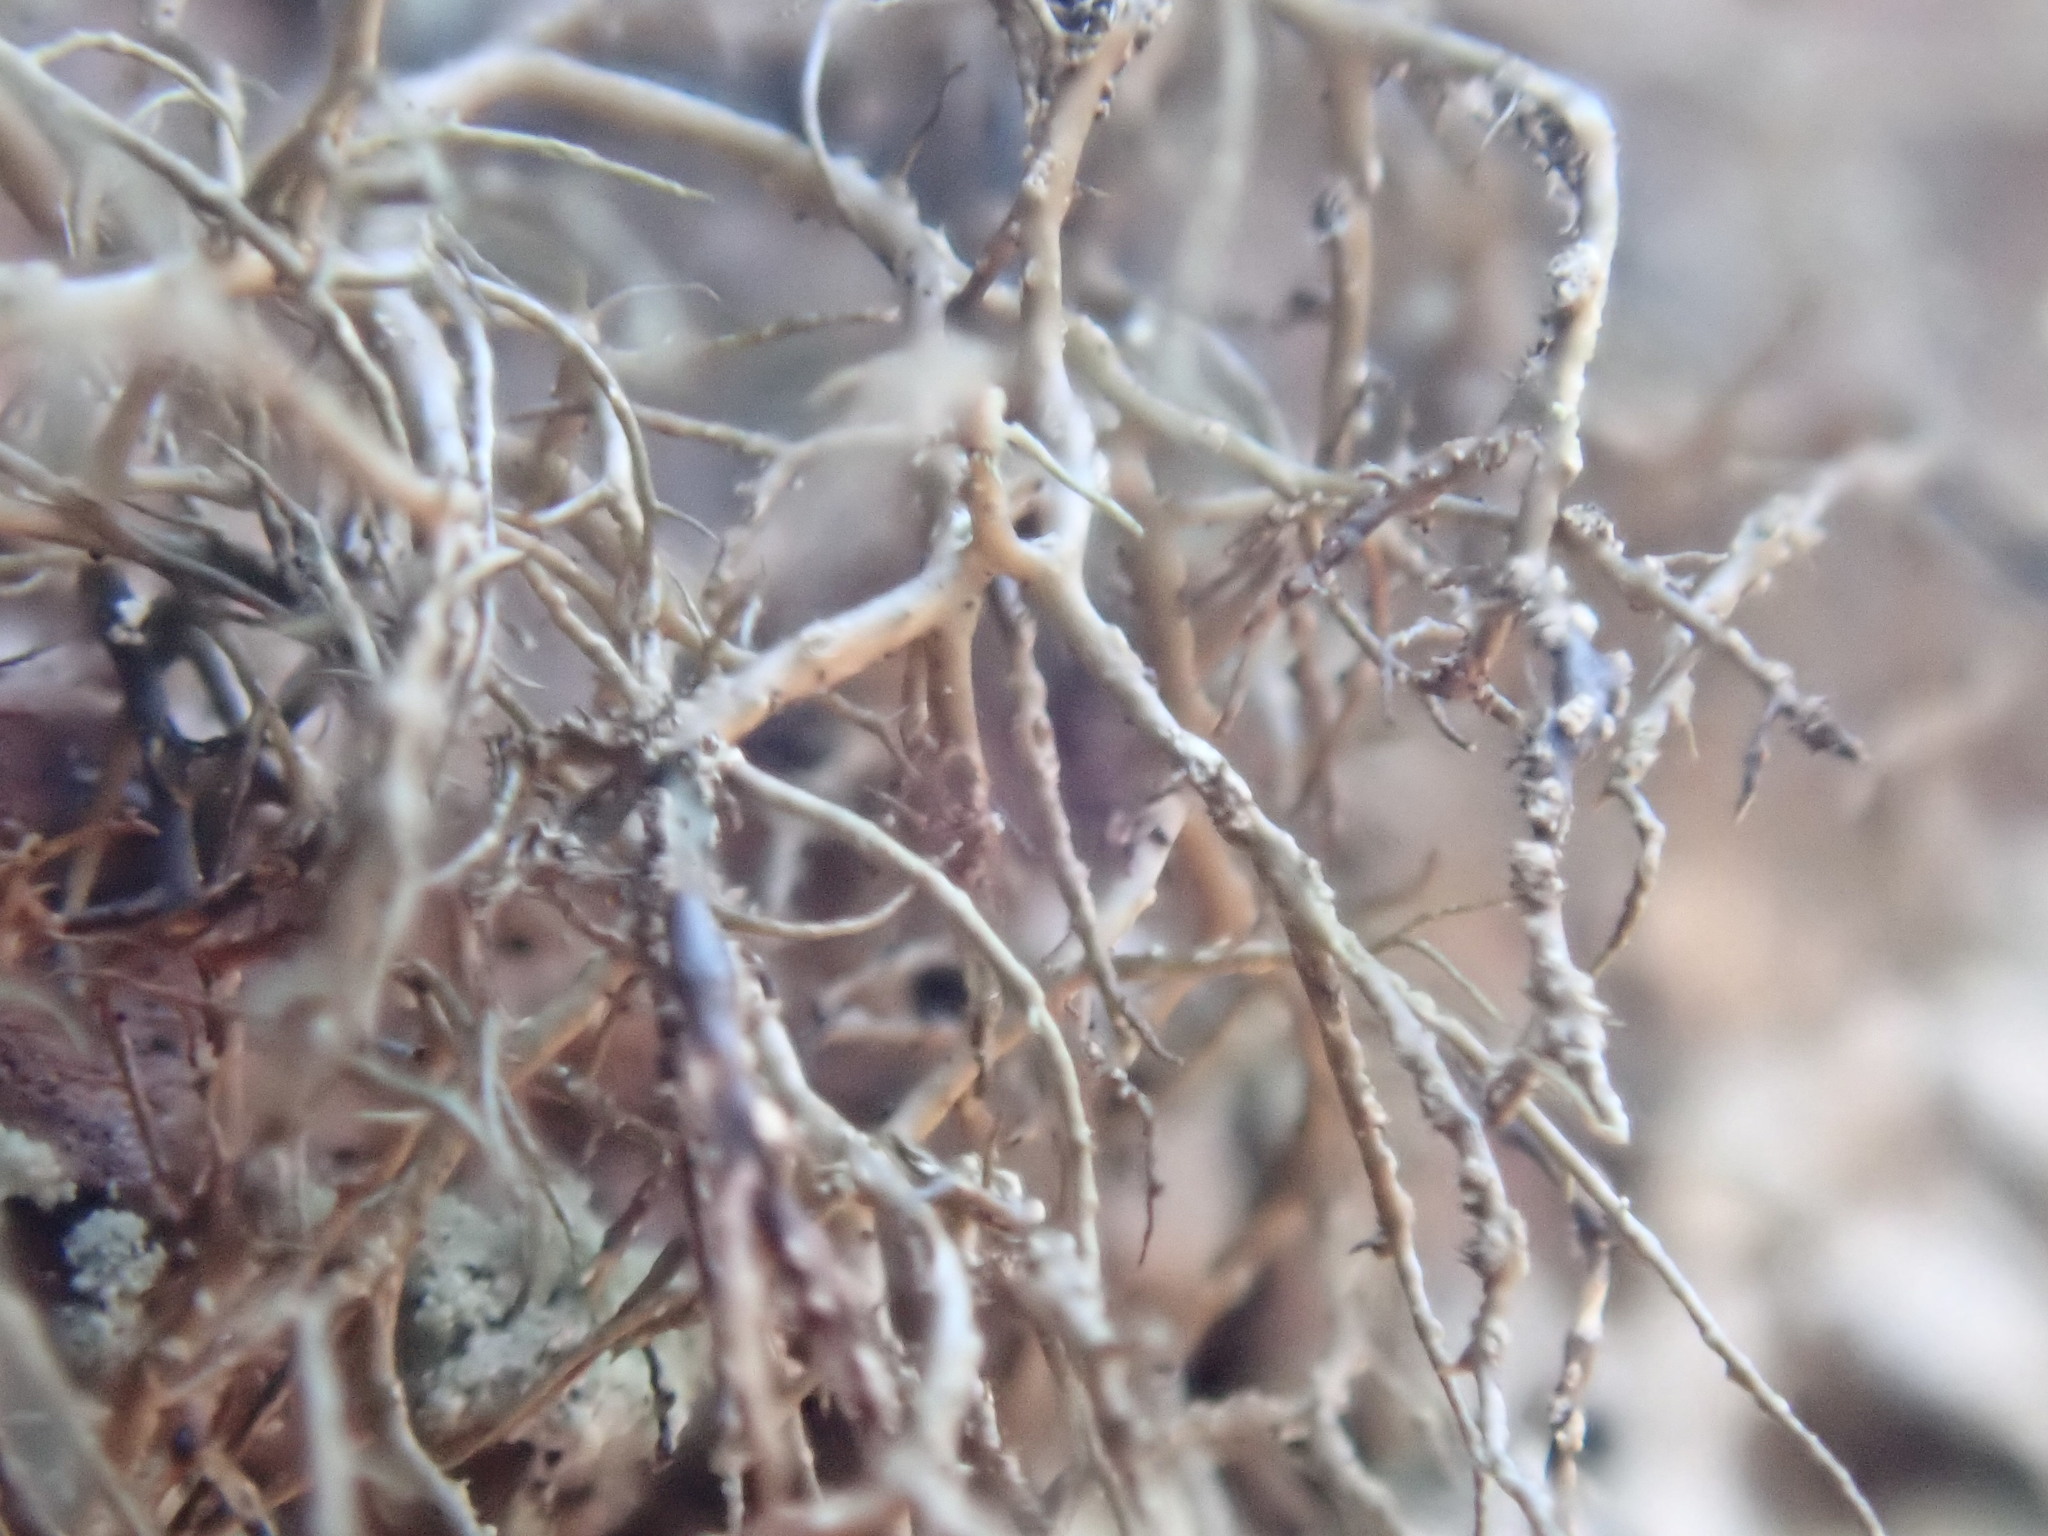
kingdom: Fungi
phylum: Ascomycota
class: Lecanoromycetes
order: Lecanorales
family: Parmeliaceae
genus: Bryoria
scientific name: Bryoria furcellata
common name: Forked hair-lichen
